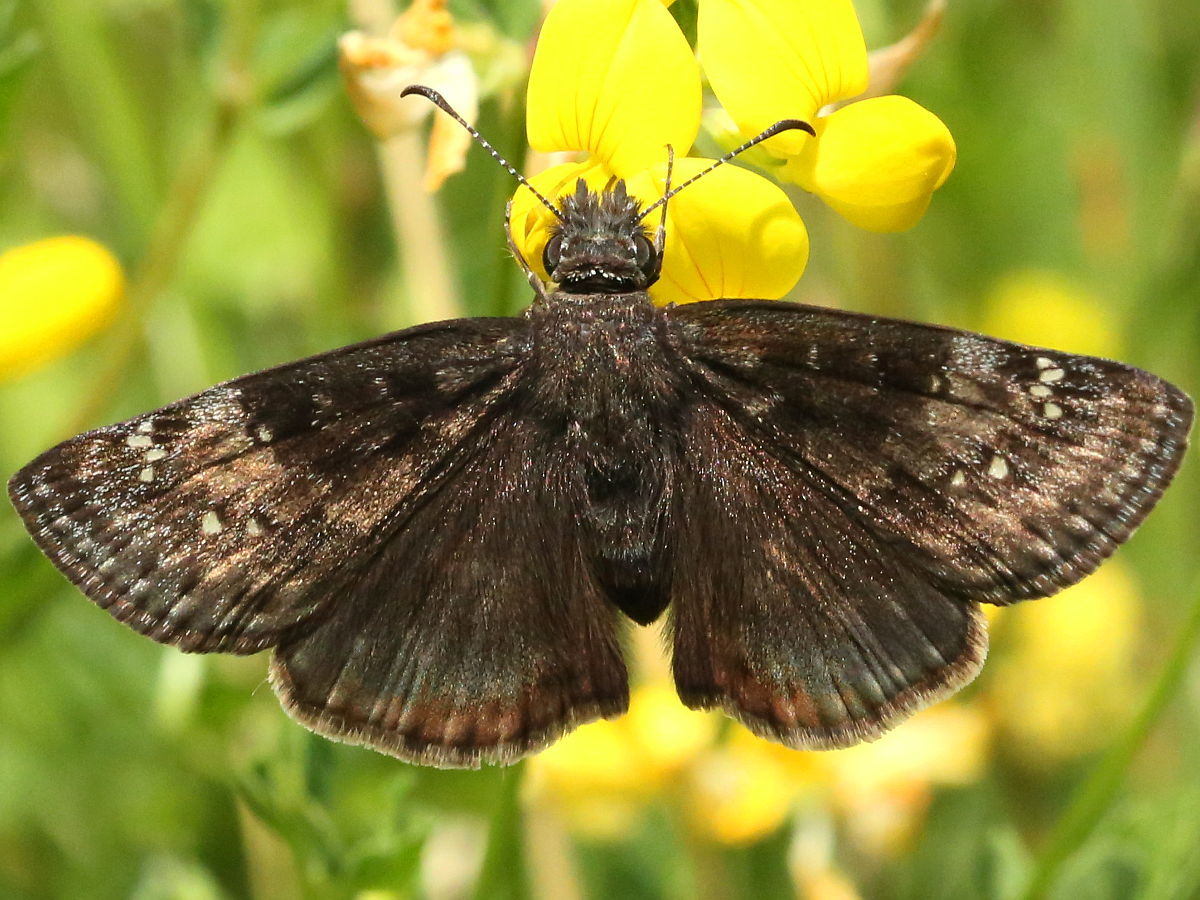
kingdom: Animalia
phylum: Arthropoda
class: Insecta
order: Lepidoptera
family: Hesperiidae
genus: Erynnis
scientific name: Erynnis baptisiae
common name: Wild indigo duskywing
